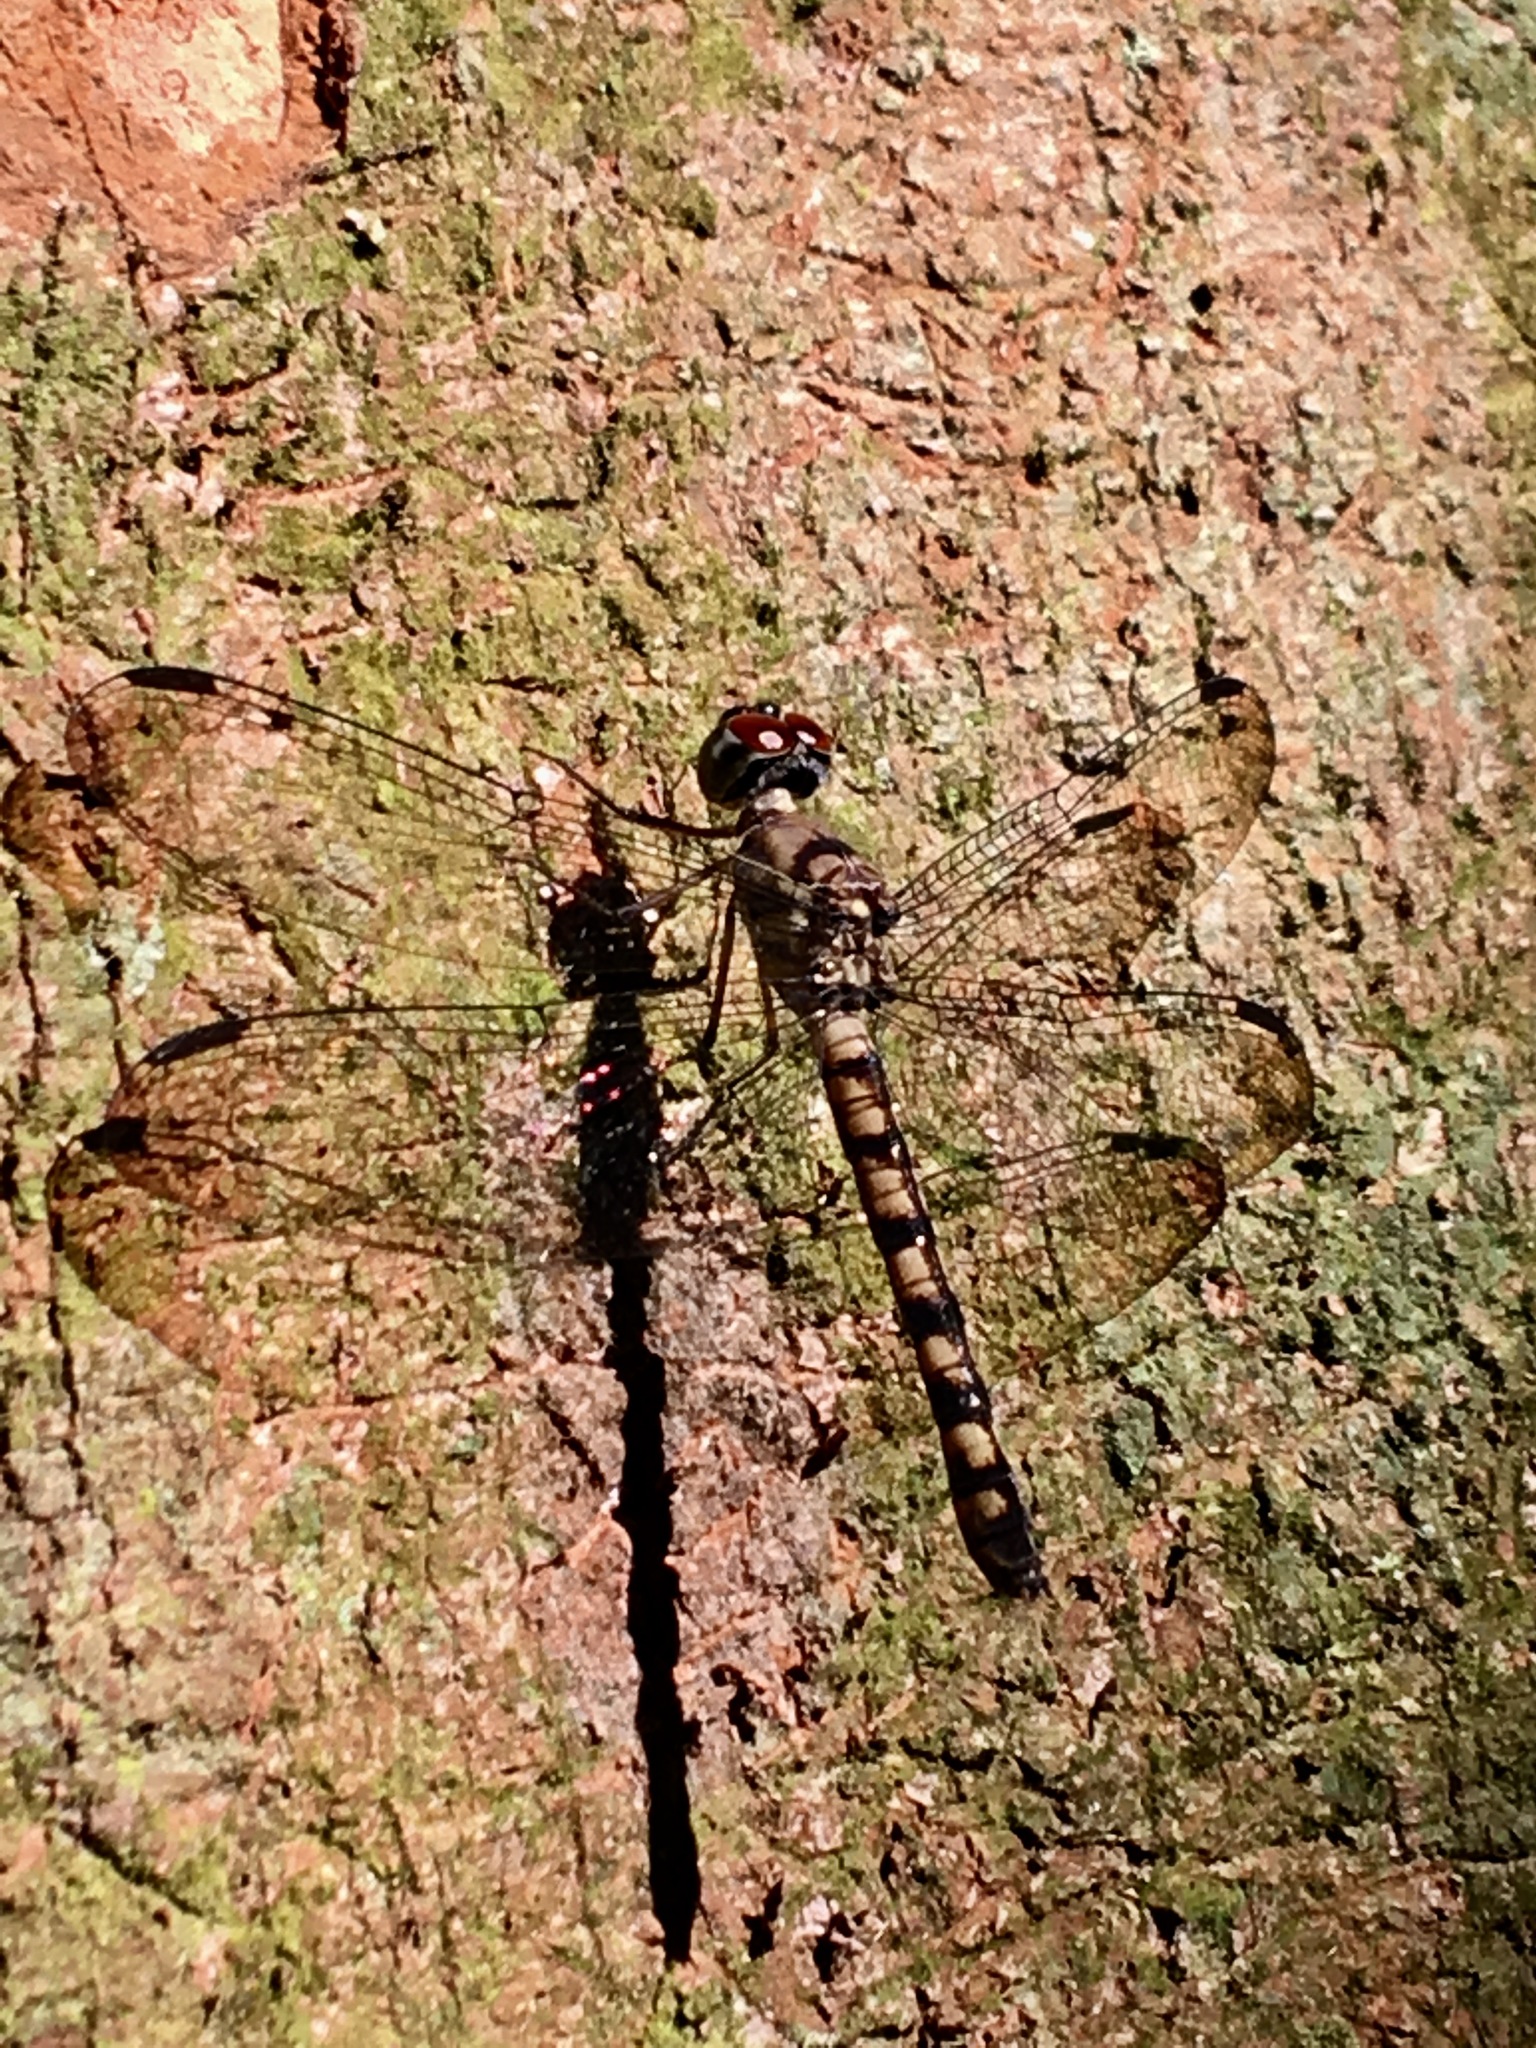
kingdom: Animalia
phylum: Arthropoda
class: Insecta
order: Odonata
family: Libellulidae
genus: Tyriobapta
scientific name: Tyriobapta torrida
